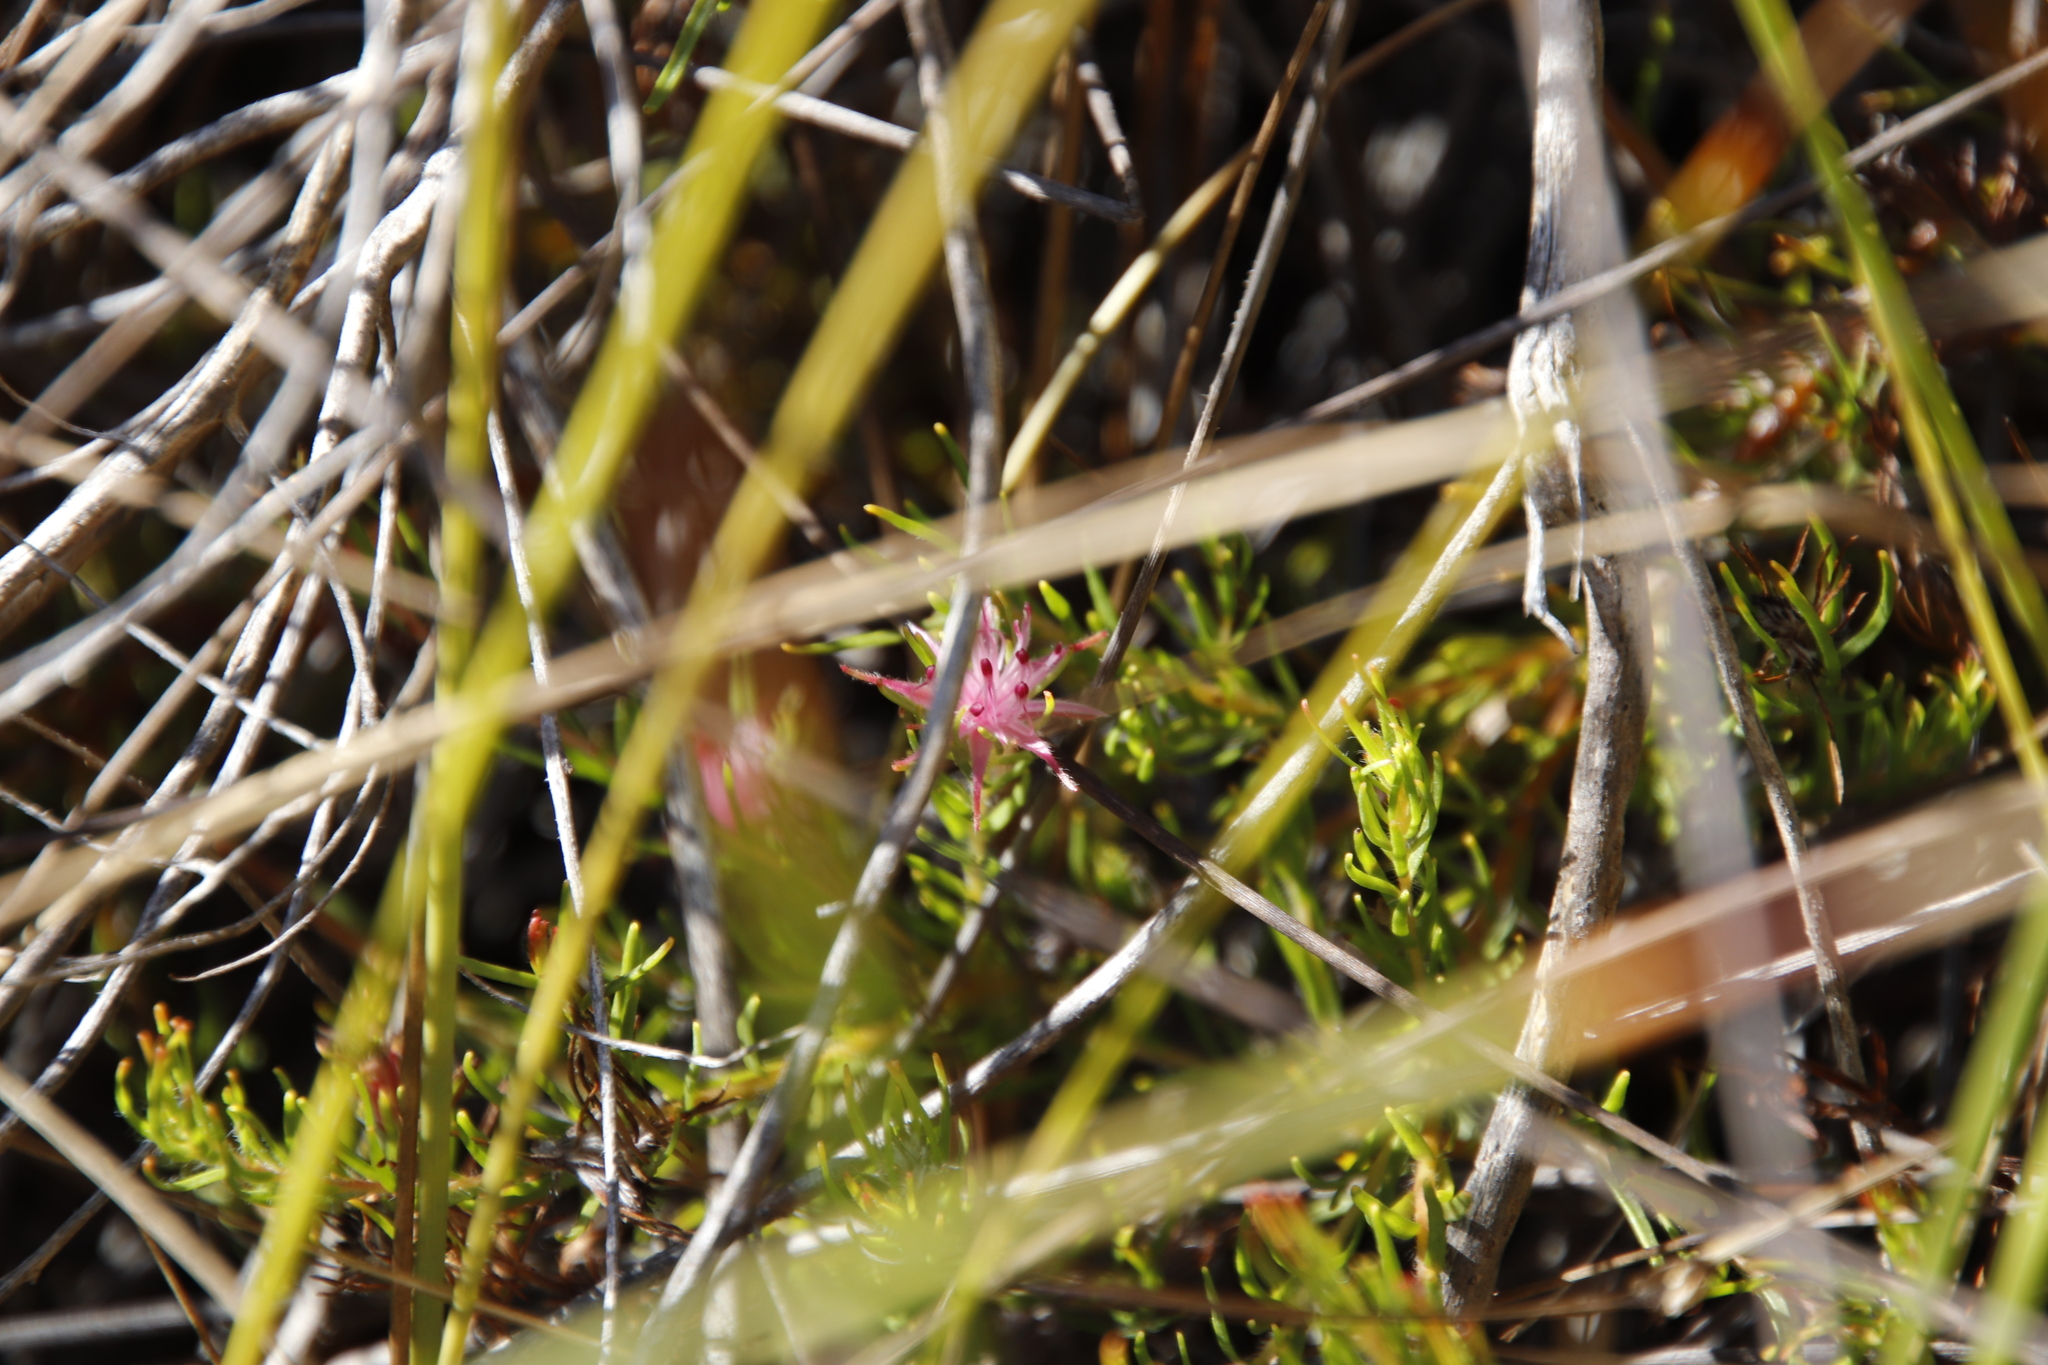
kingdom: Plantae
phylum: Tracheophyta
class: Magnoliopsida
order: Proteales
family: Proteaceae
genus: Diastella
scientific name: Diastella proteoides
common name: Flats silkypuff
